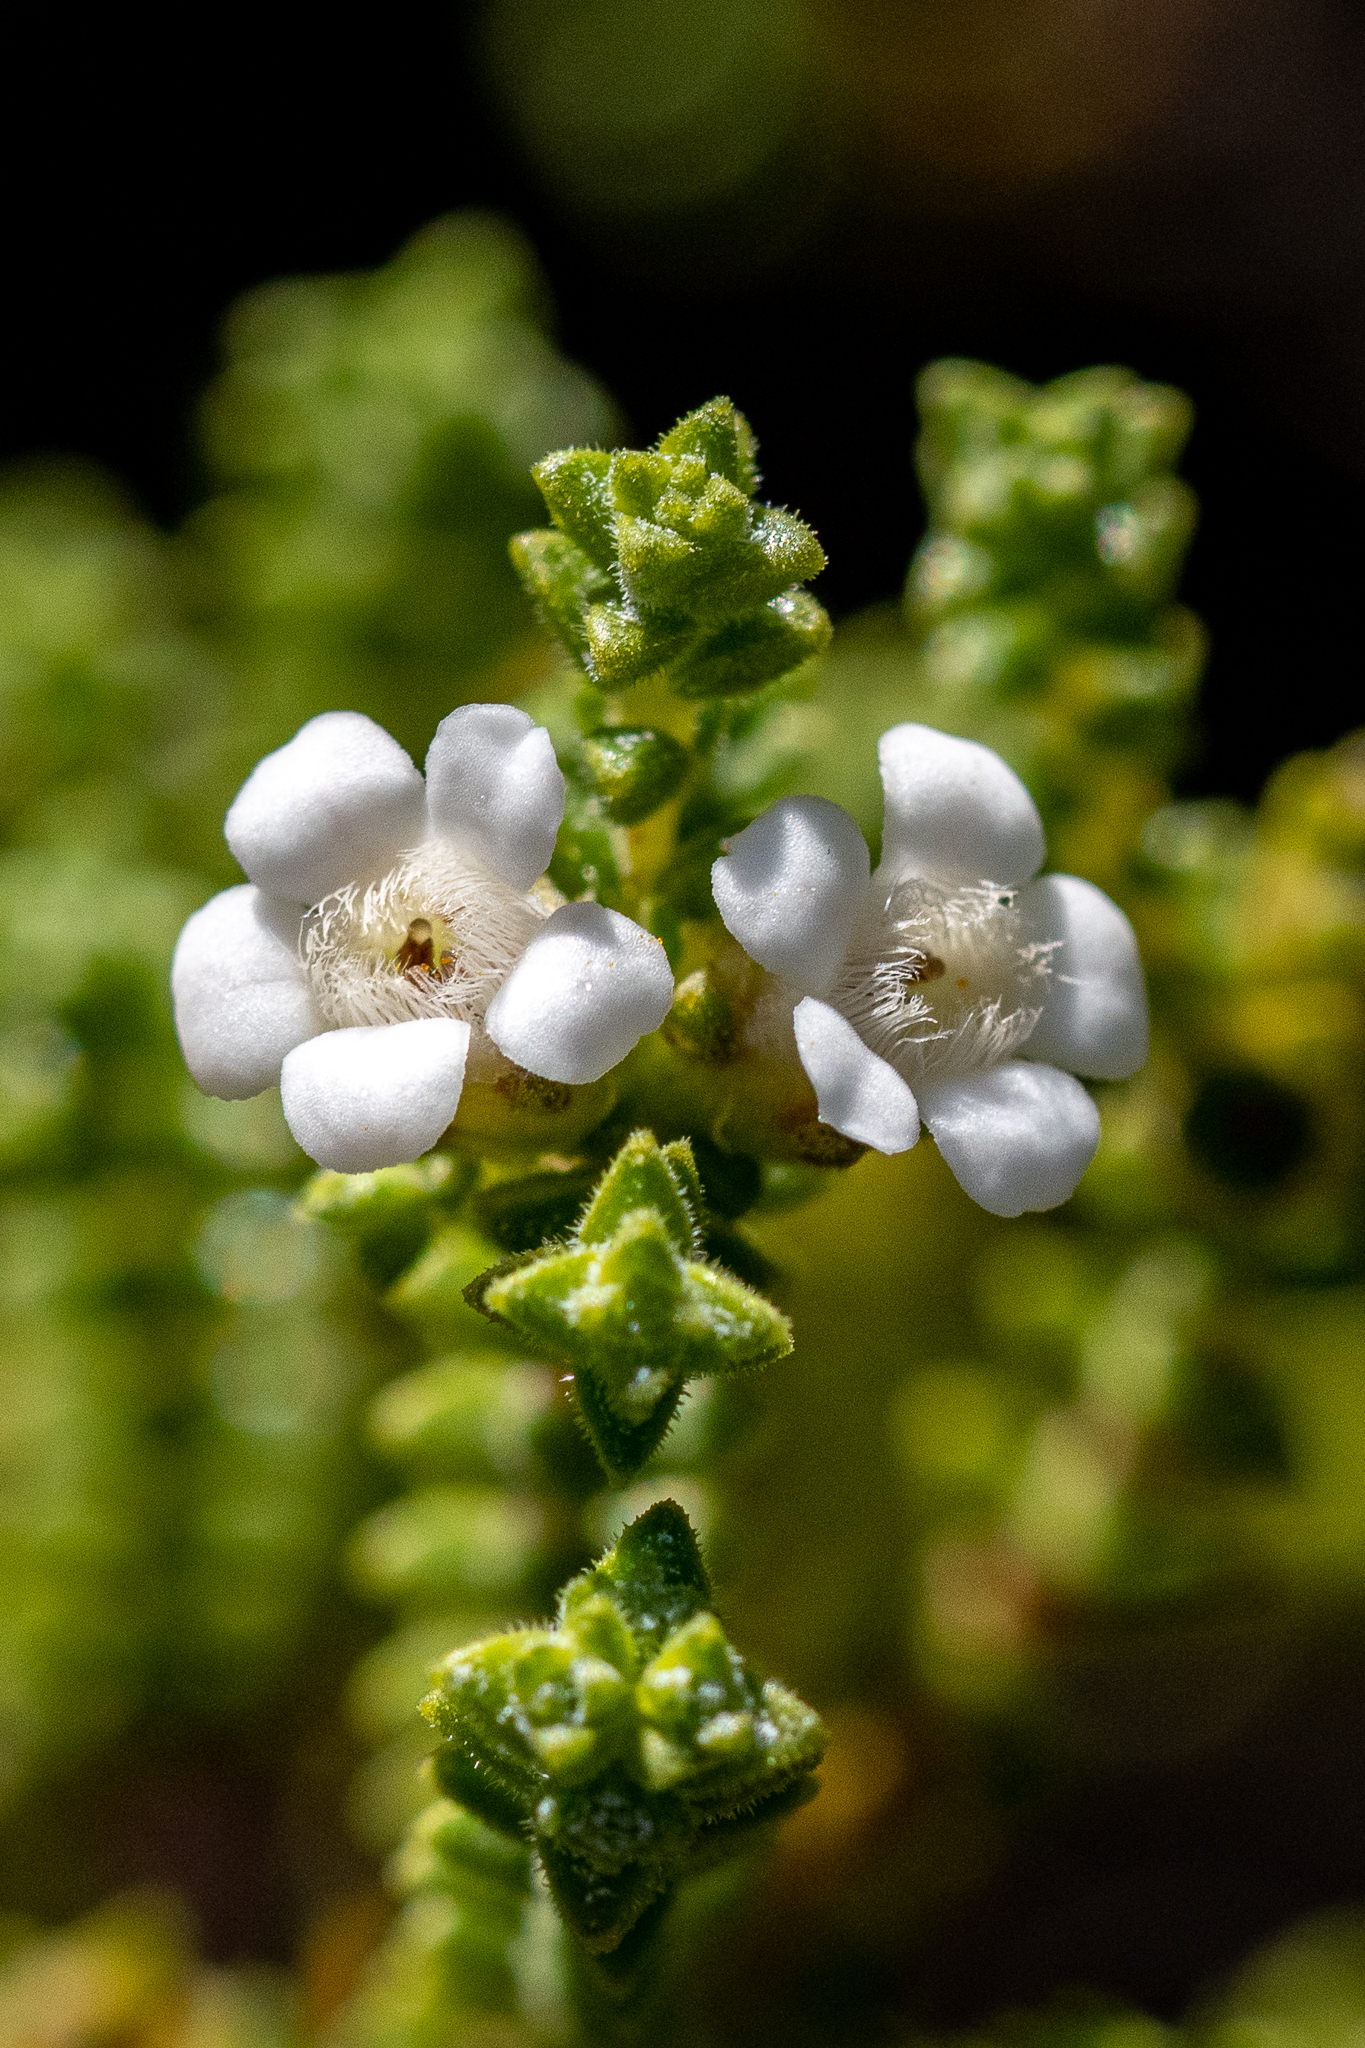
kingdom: Plantae
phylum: Tracheophyta
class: Magnoliopsida
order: Sapindales
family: Rutaceae
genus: Euchaetis
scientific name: Euchaetis burchellii
